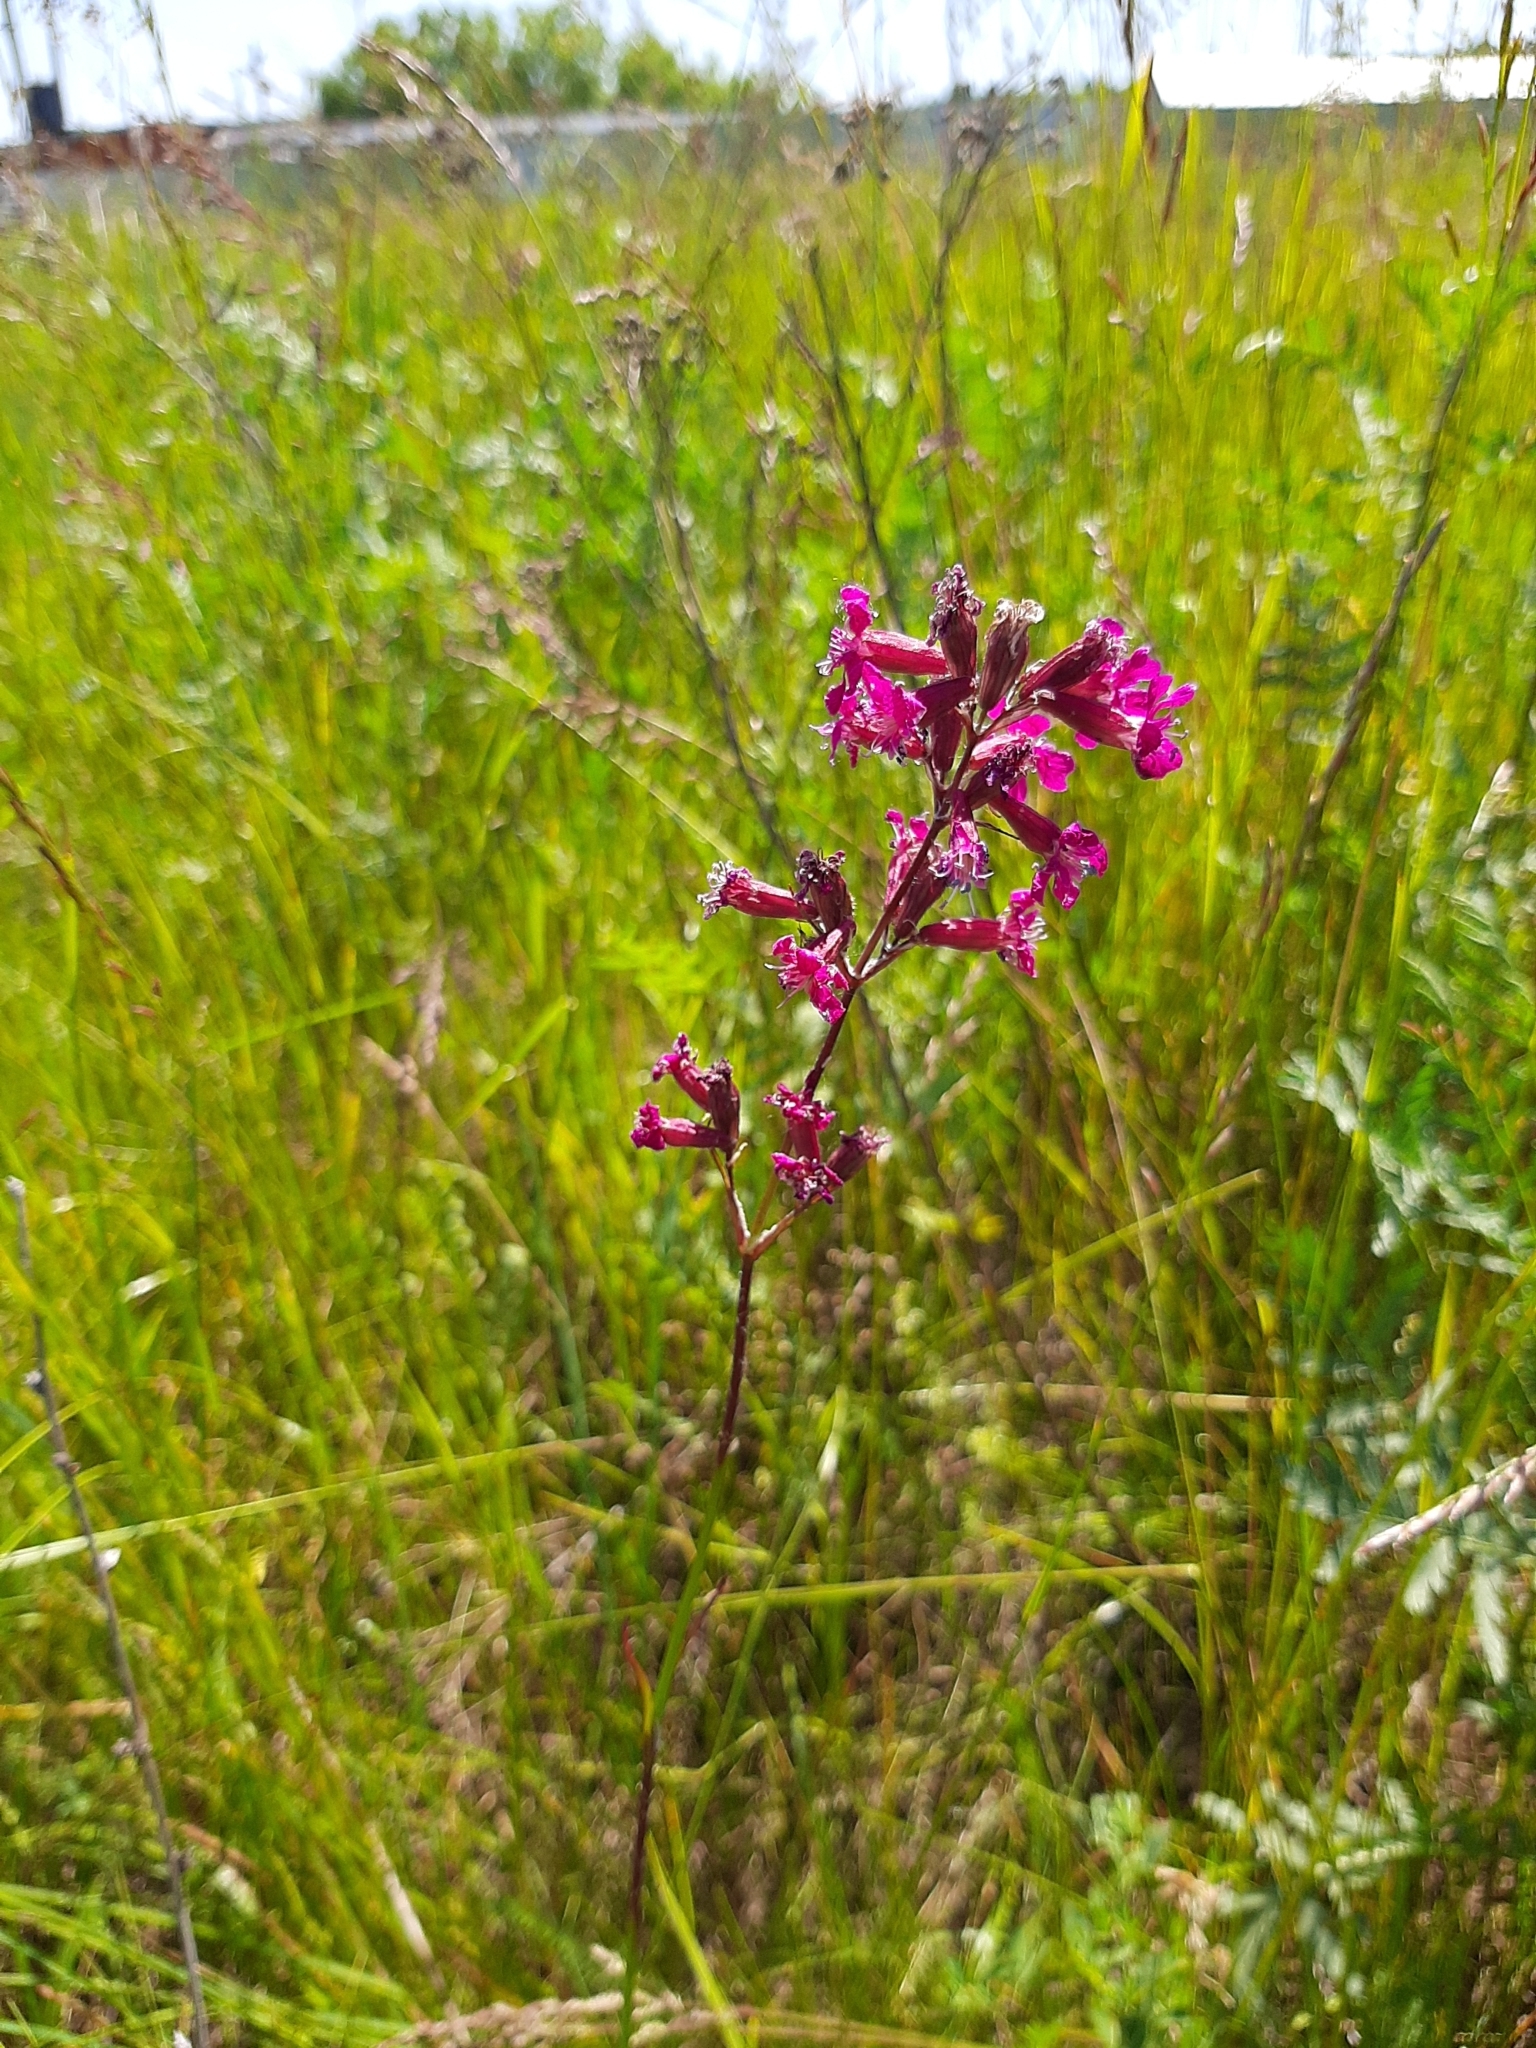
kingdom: Plantae
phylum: Tracheophyta
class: Magnoliopsida
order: Caryophyllales
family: Caryophyllaceae
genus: Viscaria
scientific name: Viscaria vulgaris
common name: Clammy campion
